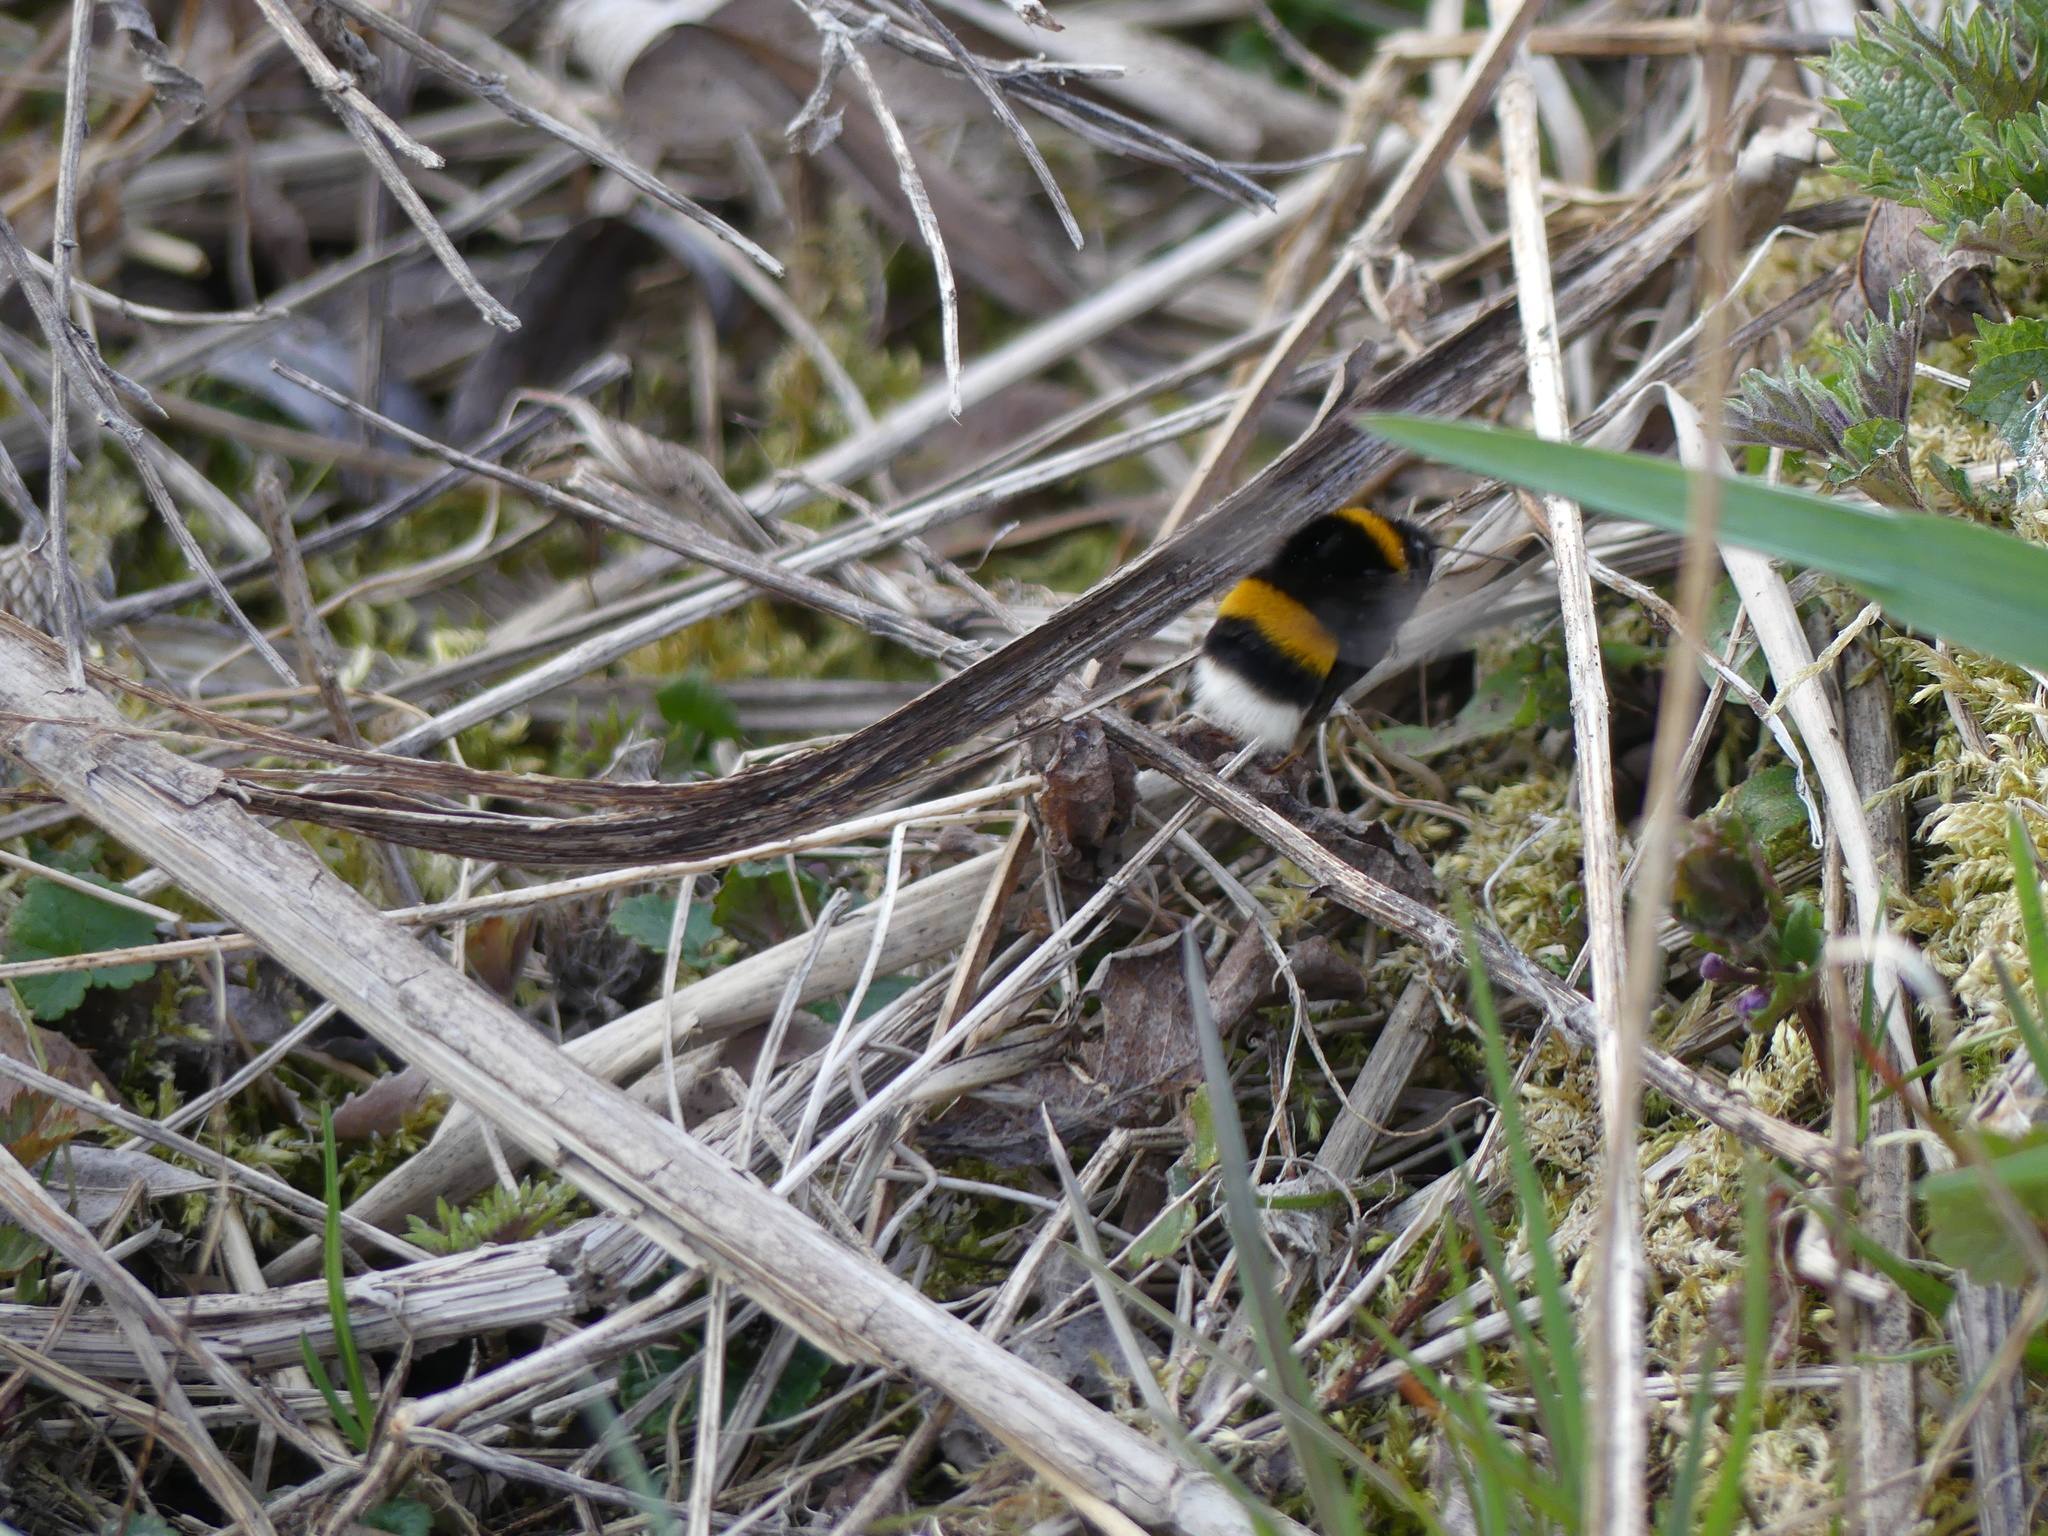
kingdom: Animalia
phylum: Arthropoda
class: Insecta
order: Hymenoptera
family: Apidae
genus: Bombus
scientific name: Bombus
